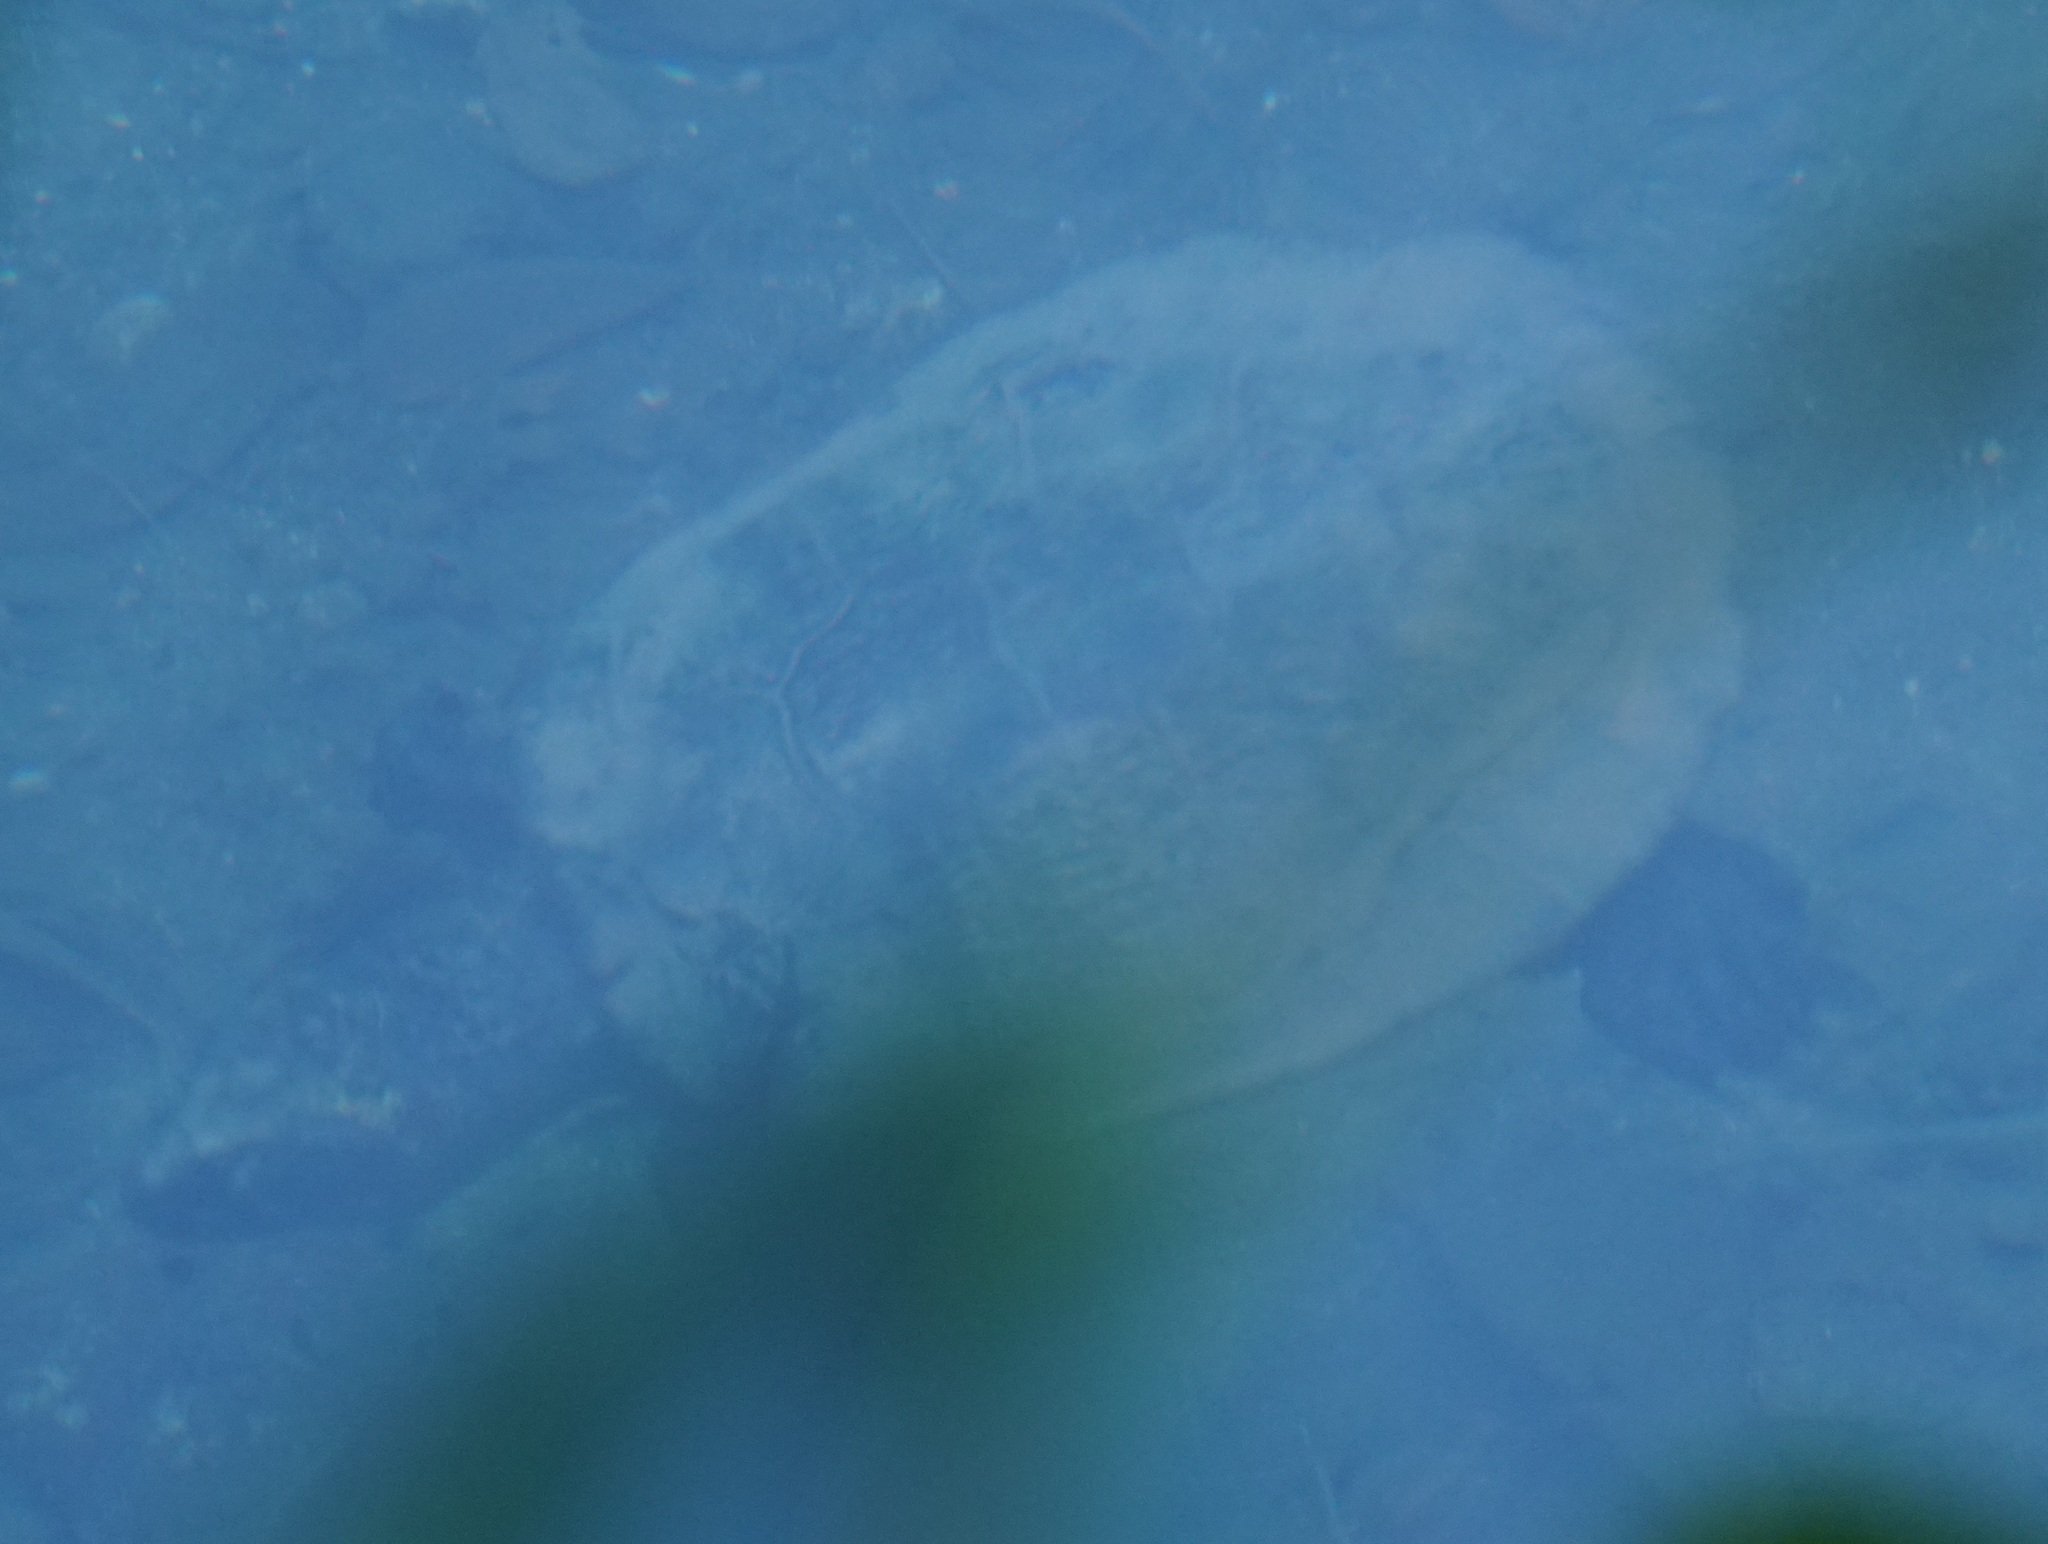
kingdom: Animalia
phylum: Chordata
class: Testudines
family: Chelidae
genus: Myuchelys
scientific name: Myuchelys latisternum
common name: Serrated snapping turtle
